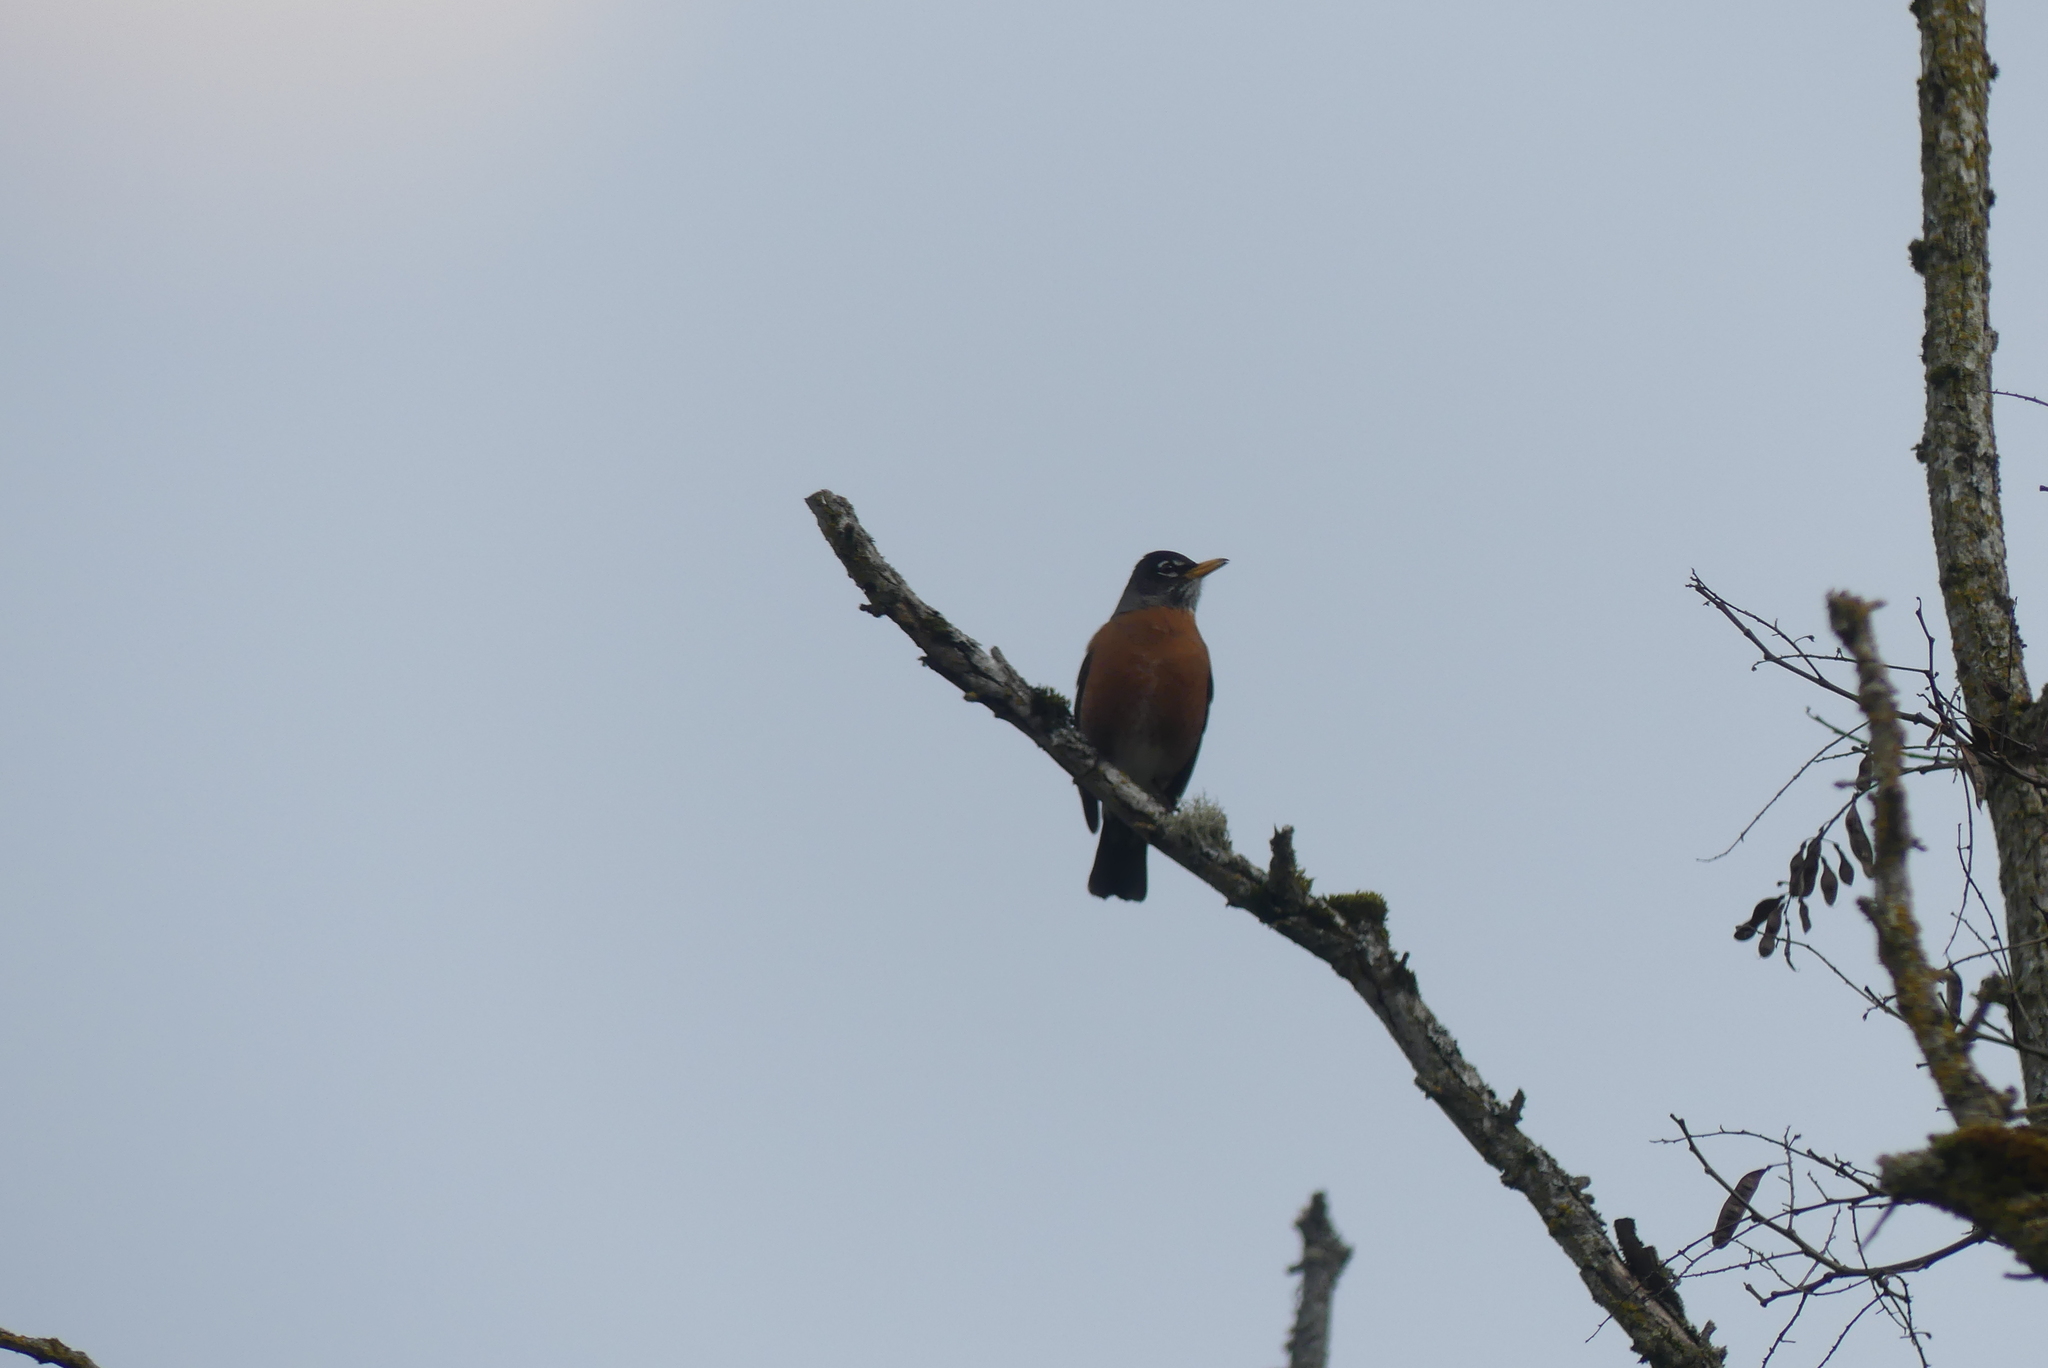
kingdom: Animalia
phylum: Chordata
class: Aves
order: Passeriformes
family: Turdidae
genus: Turdus
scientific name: Turdus migratorius
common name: American robin
